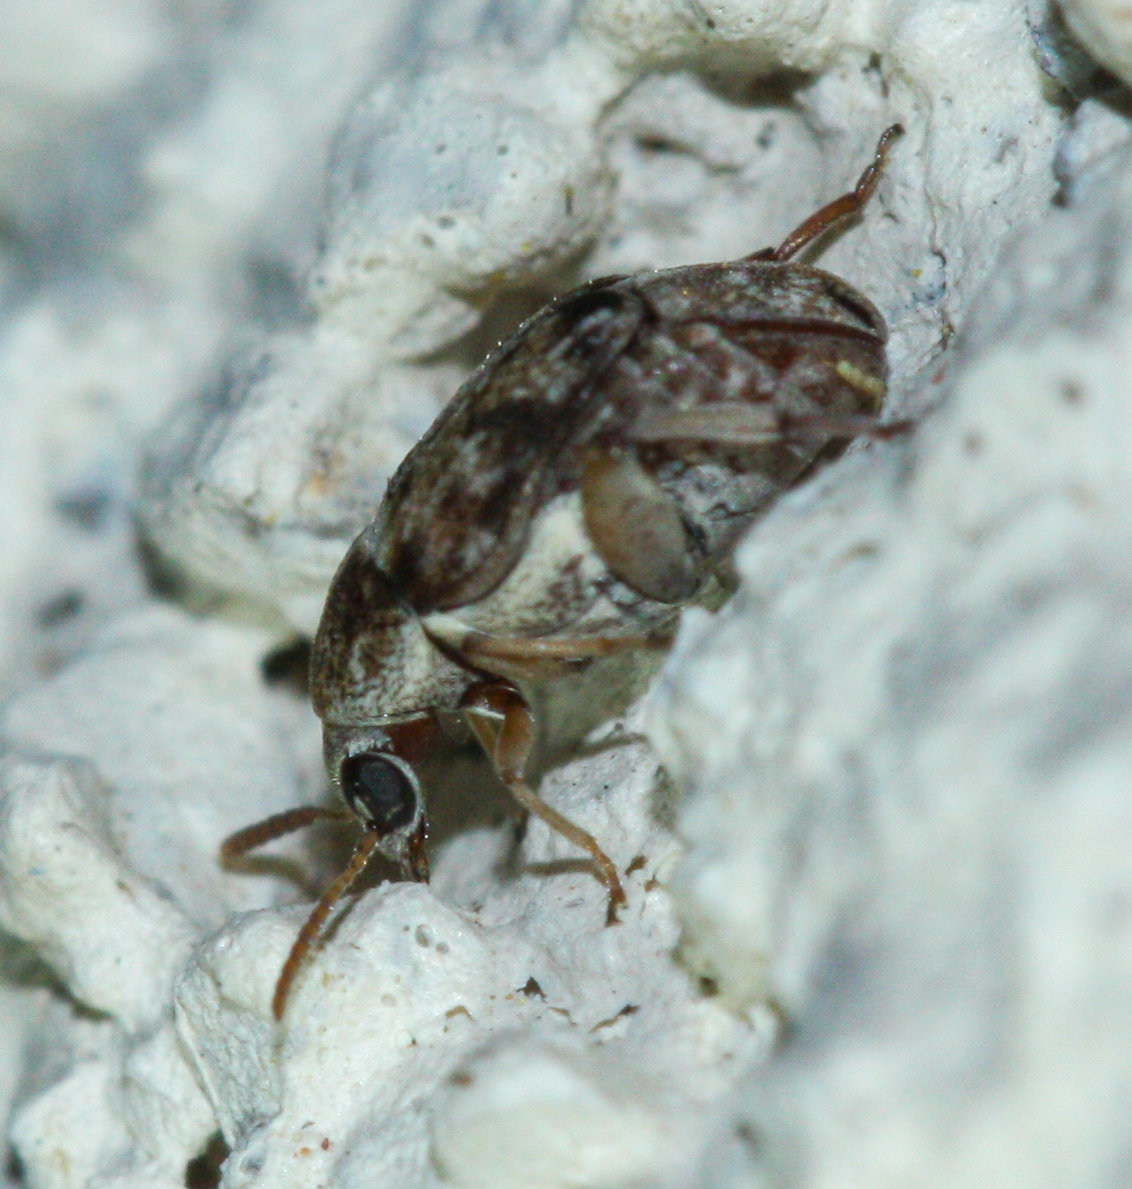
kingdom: Animalia
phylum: Arthropoda
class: Insecta
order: Coleoptera
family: Chrysomelidae
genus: Algarobius
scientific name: Algarobius prosopis
